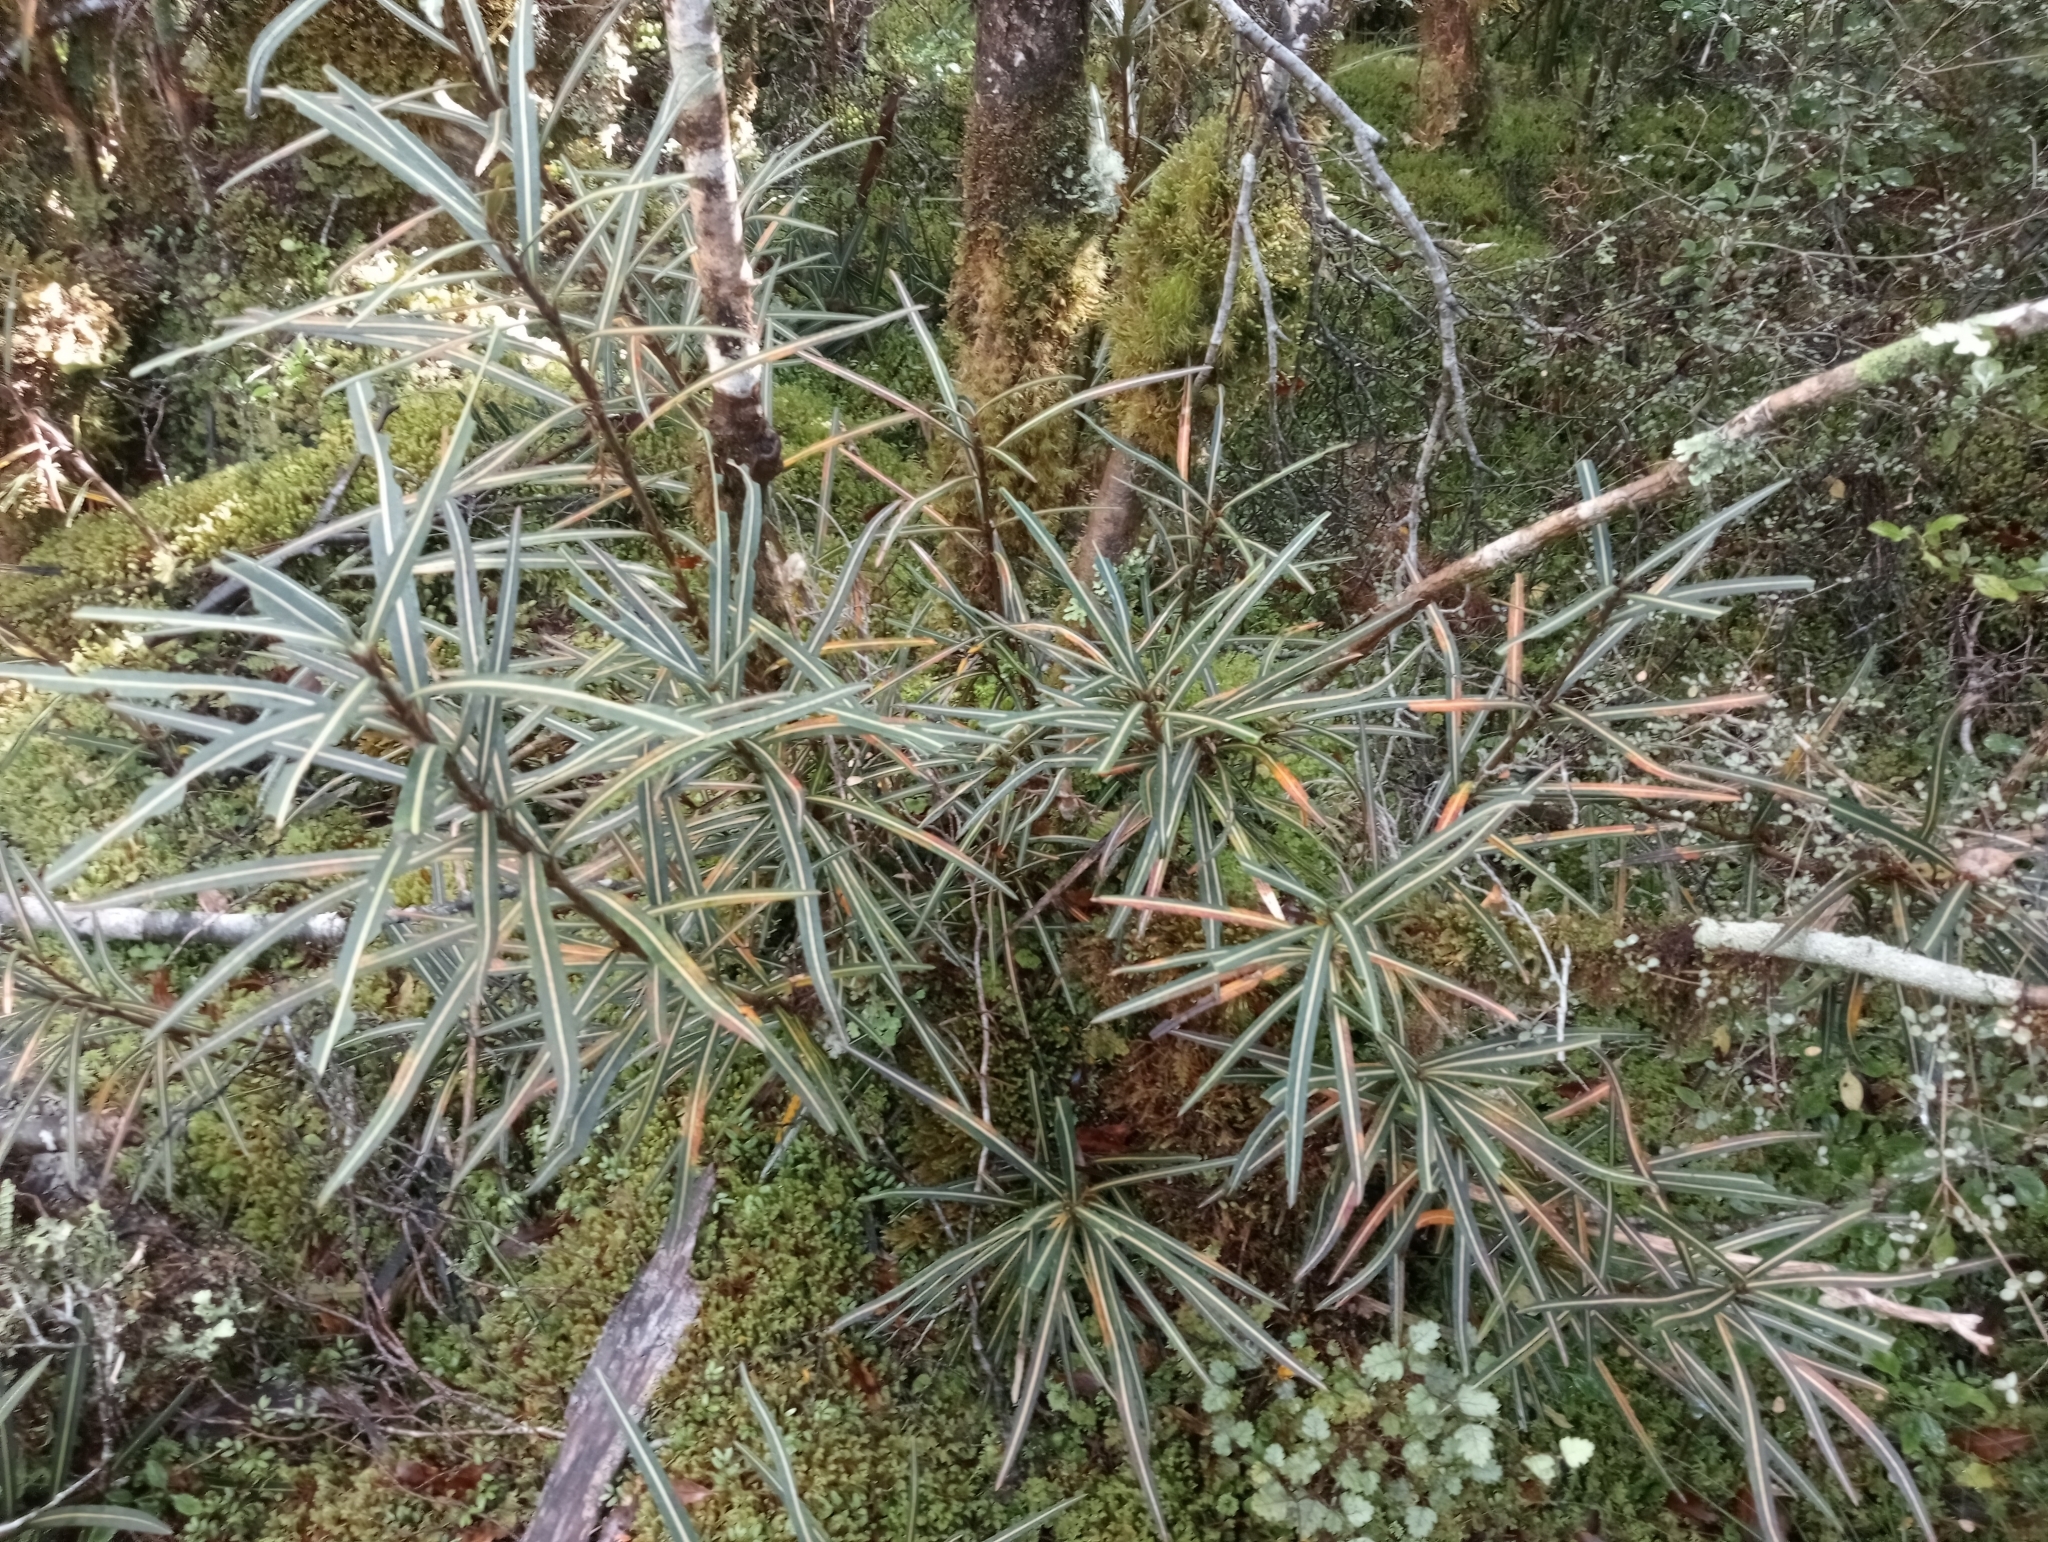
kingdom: Plantae
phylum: Tracheophyta
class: Magnoliopsida
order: Apiales
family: Araliaceae
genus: Pseudopanax
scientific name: Pseudopanax linearis
